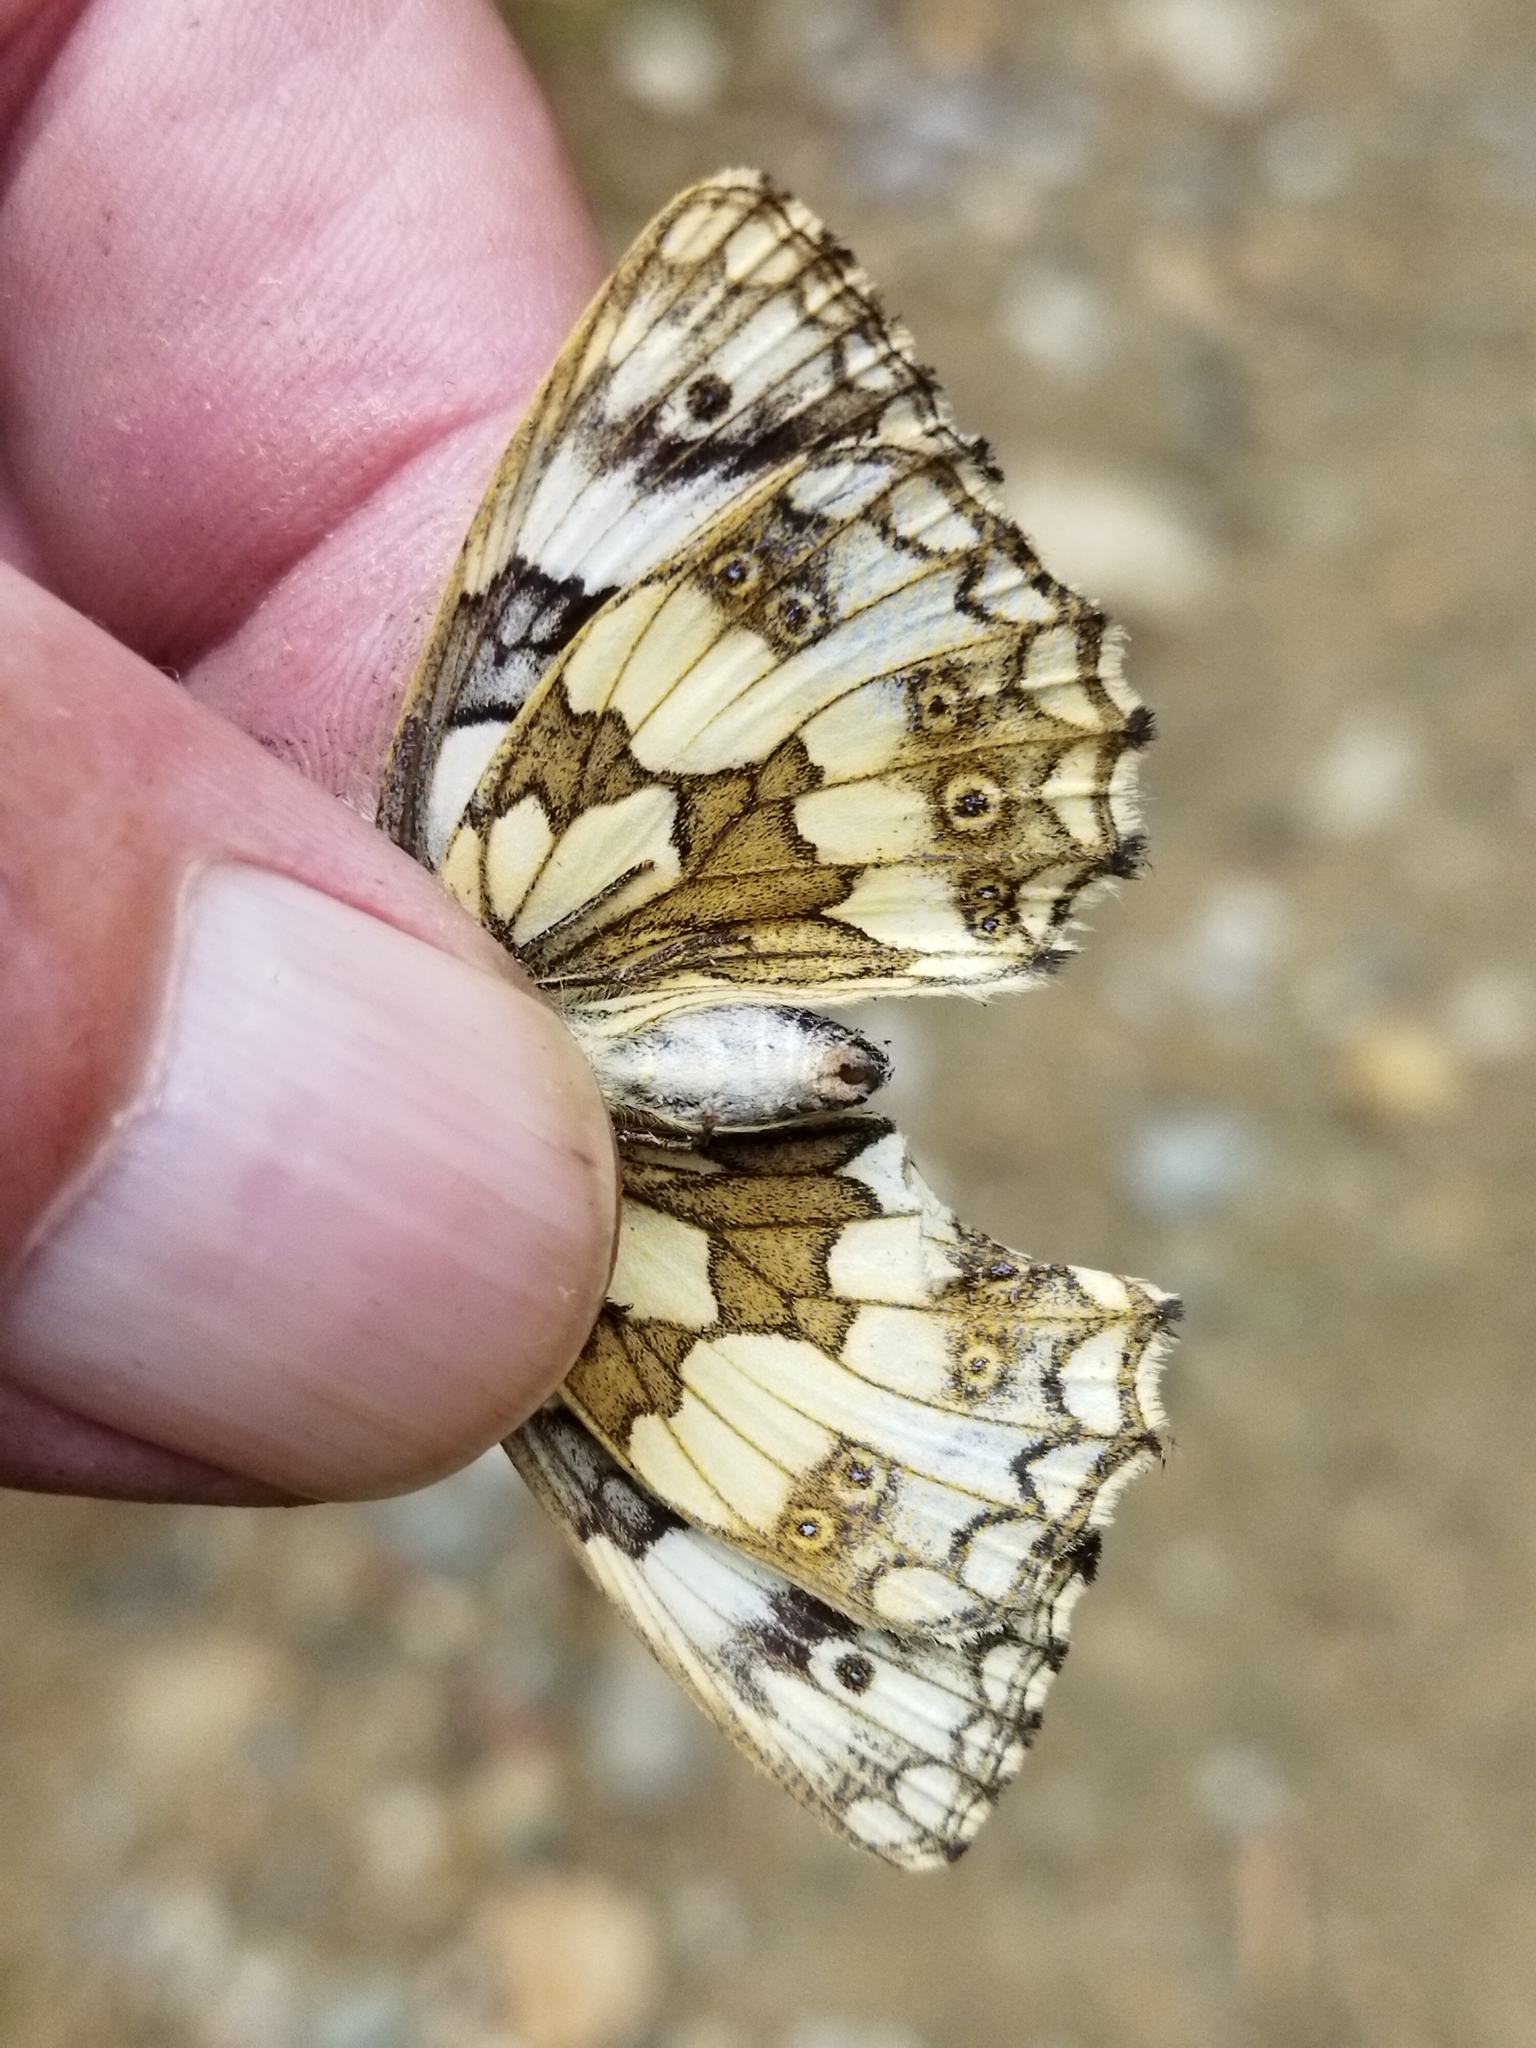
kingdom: Animalia
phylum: Arthropoda
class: Insecta
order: Lepidoptera
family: Nymphalidae
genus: Melanargia
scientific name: Melanargia galathea
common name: Marbled white
